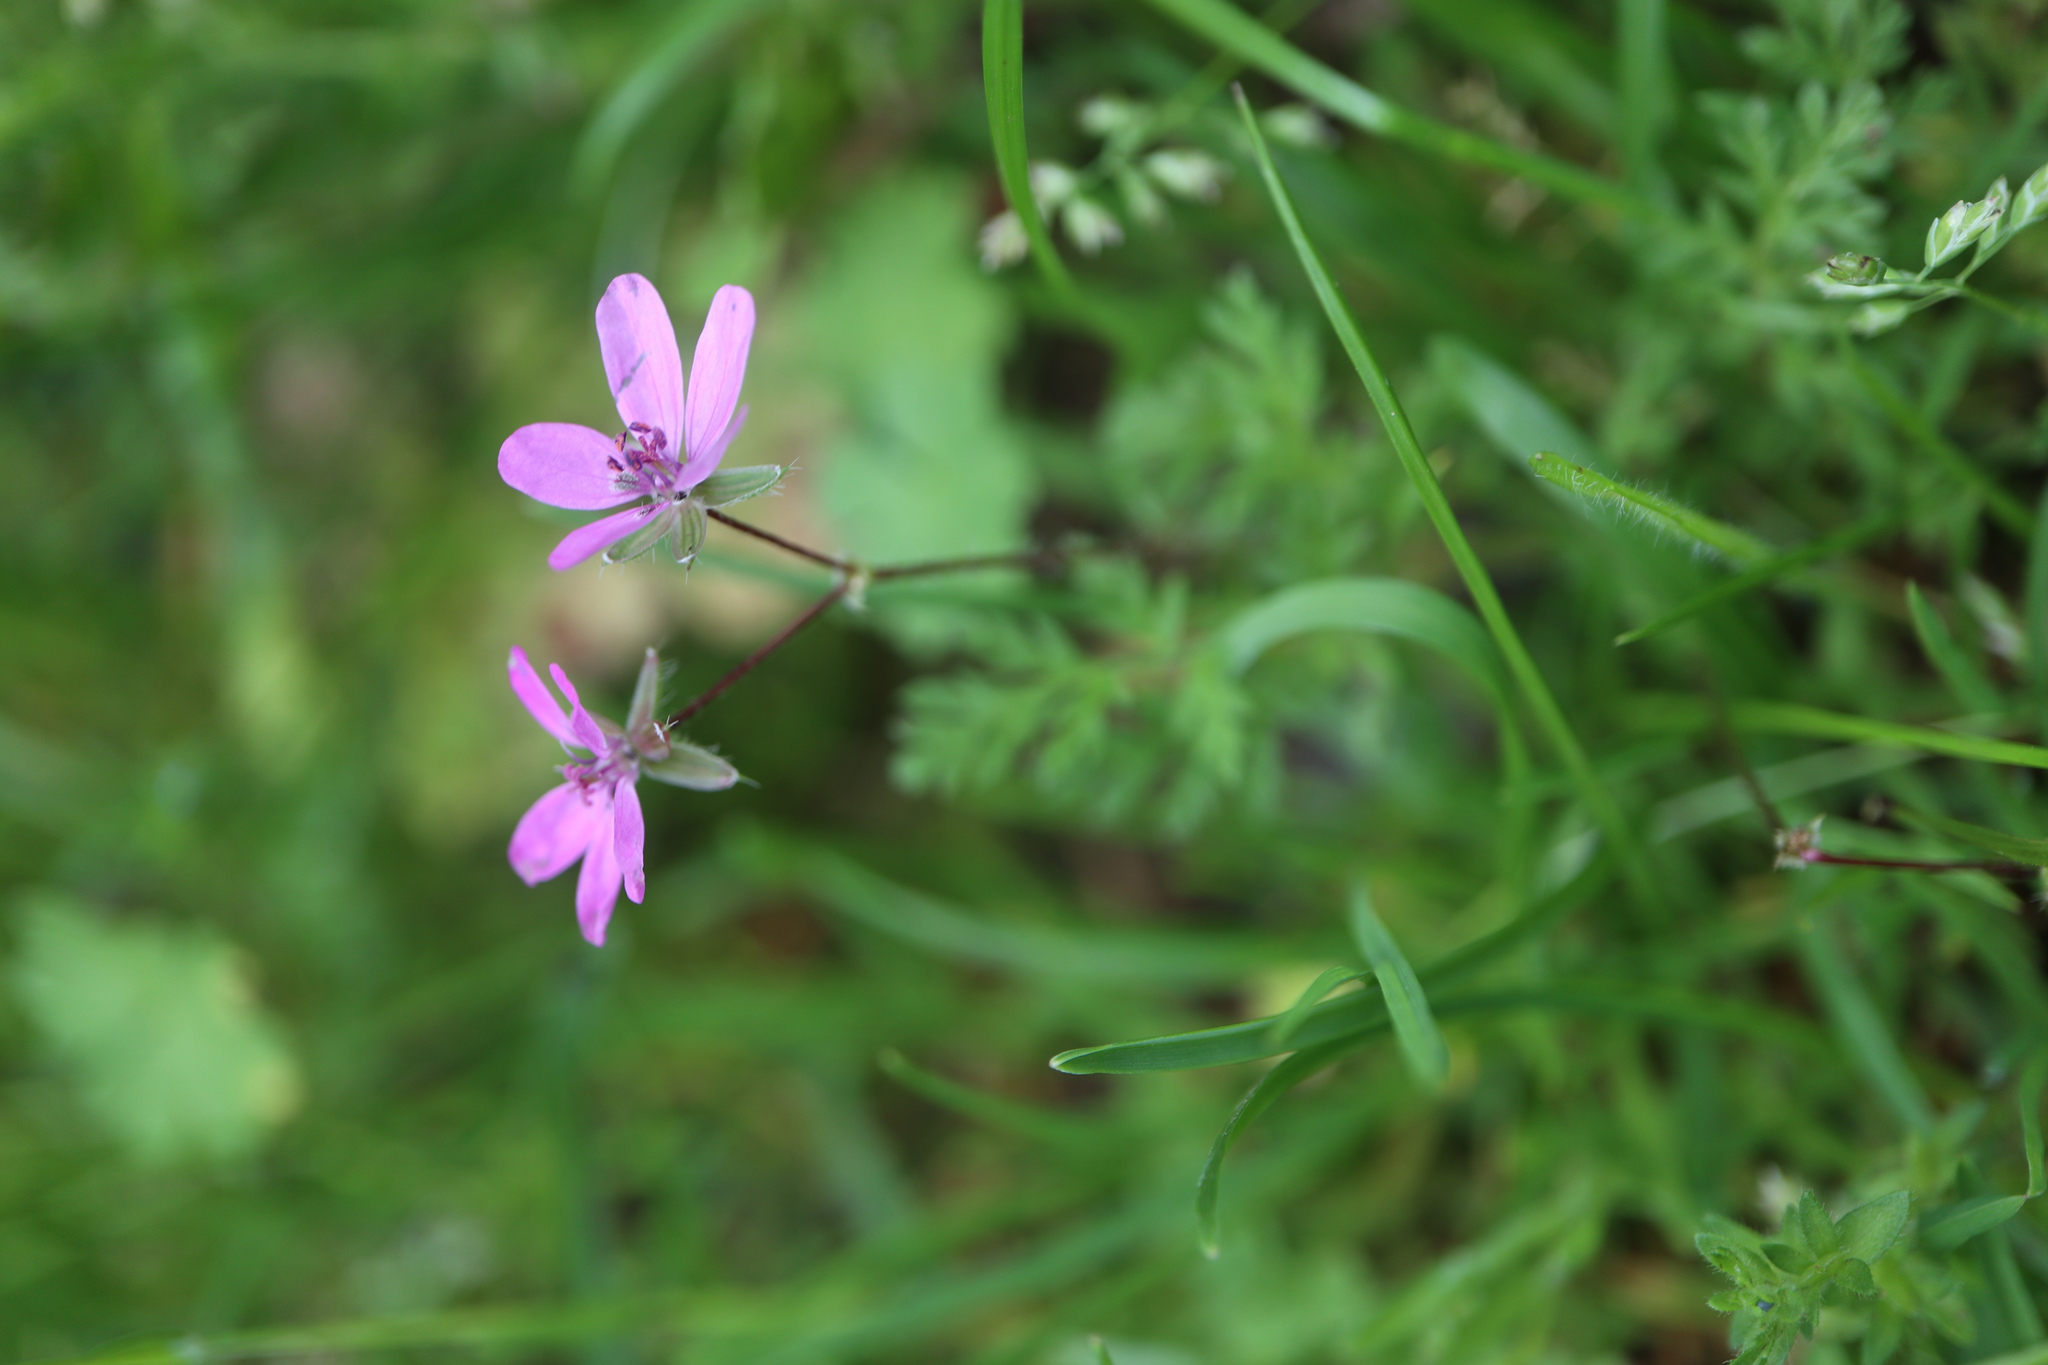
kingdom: Plantae
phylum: Tracheophyta
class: Magnoliopsida
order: Geraniales
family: Geraniaceae
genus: Erodium
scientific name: Erodium cicutarium
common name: Common stork's-bill
